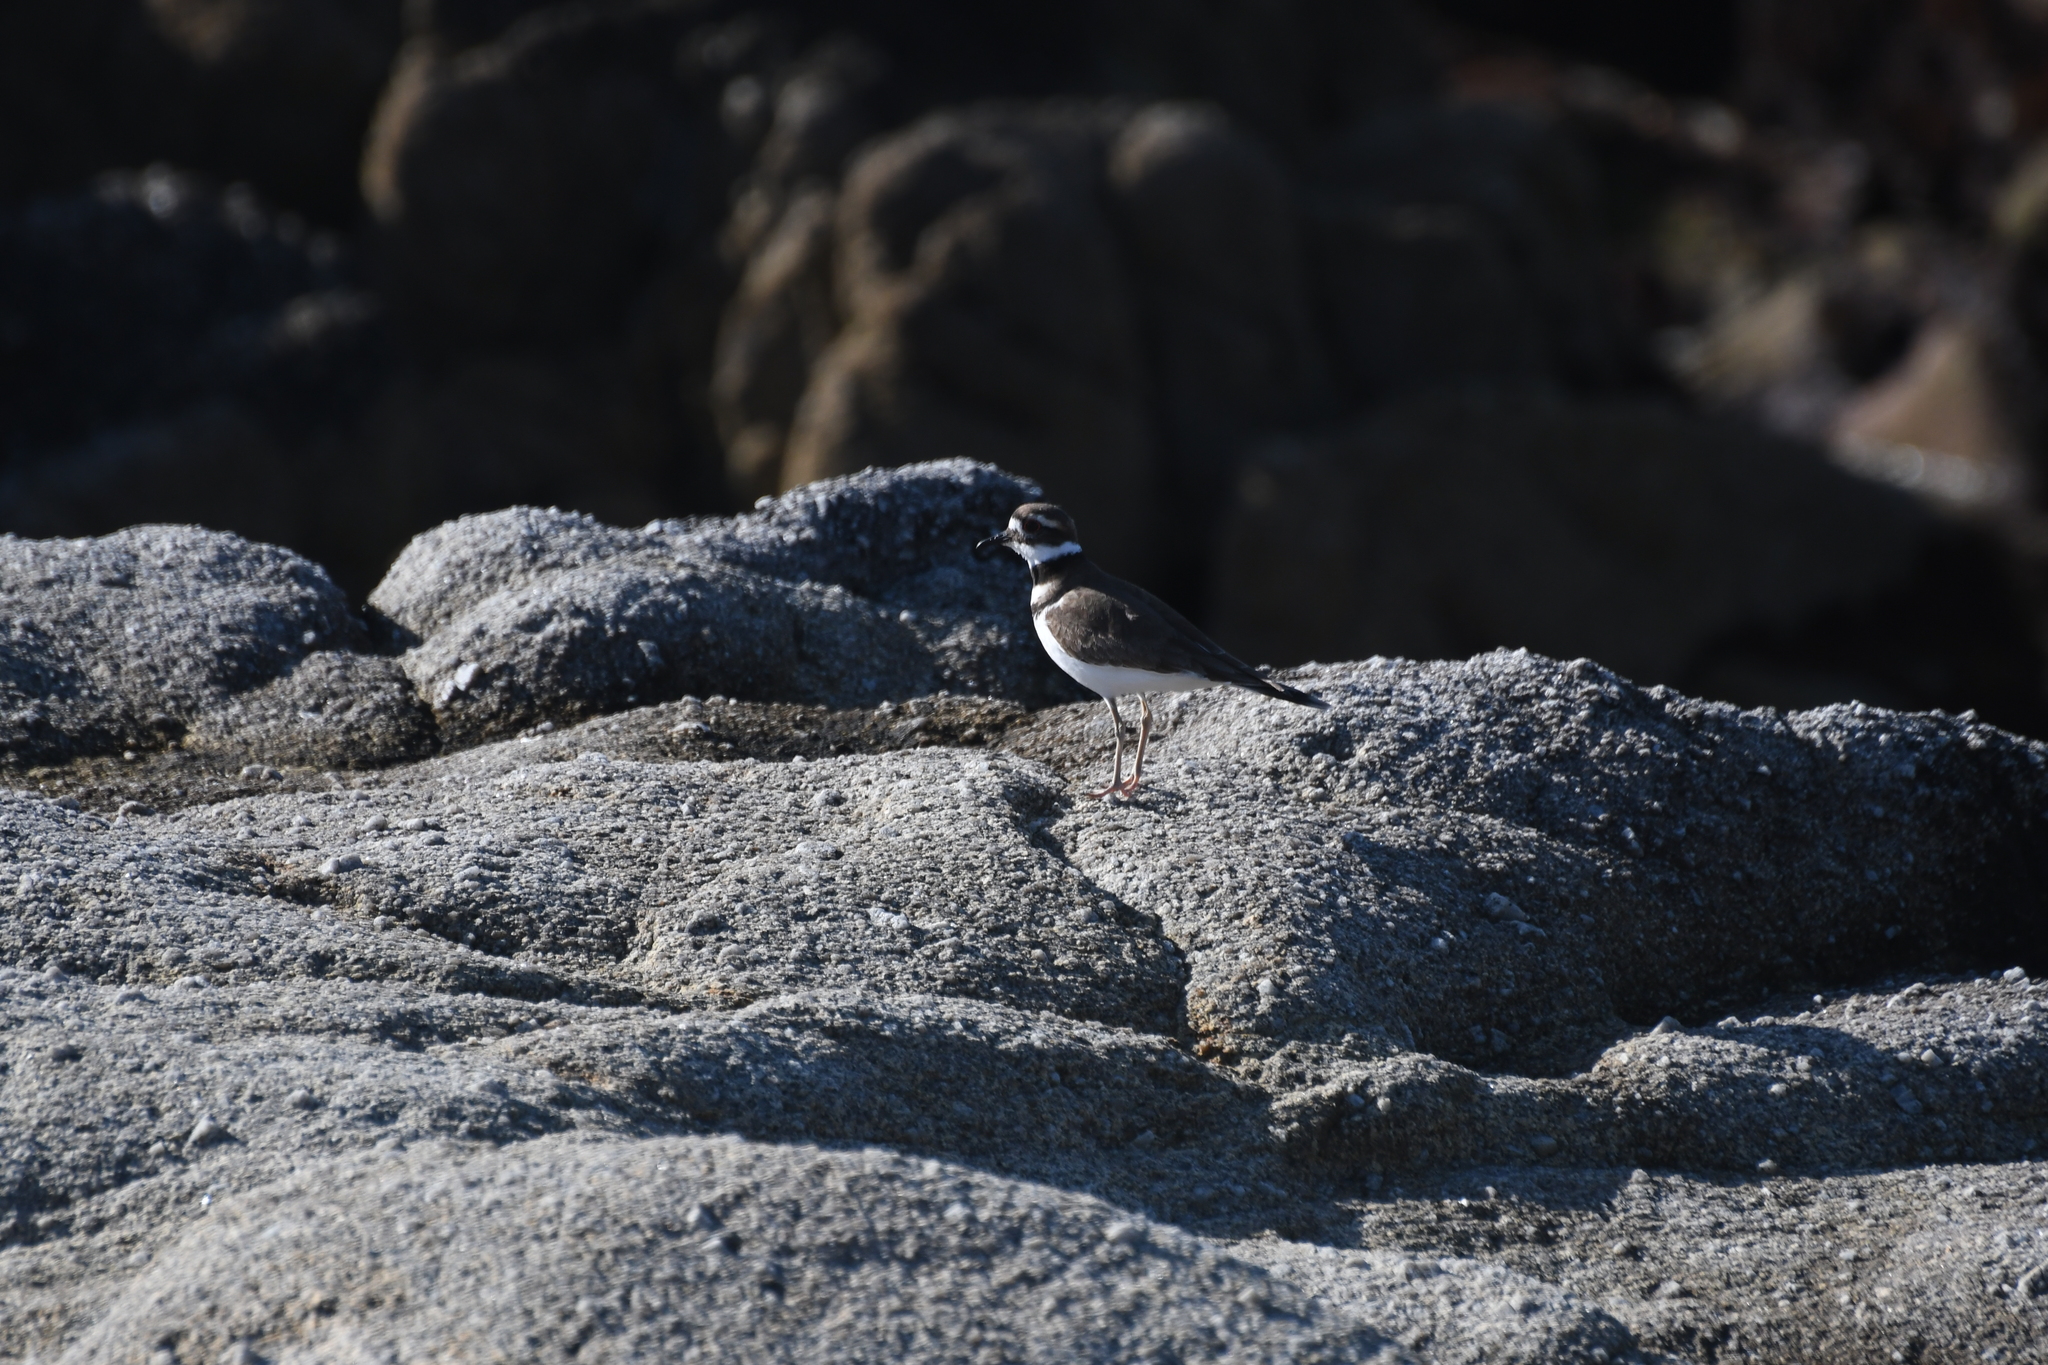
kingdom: Animalia
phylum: Chordata
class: Aves
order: Charadriiformes
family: Charadriidae
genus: Charadrius
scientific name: Charadrius vociferus
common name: Killdeer
